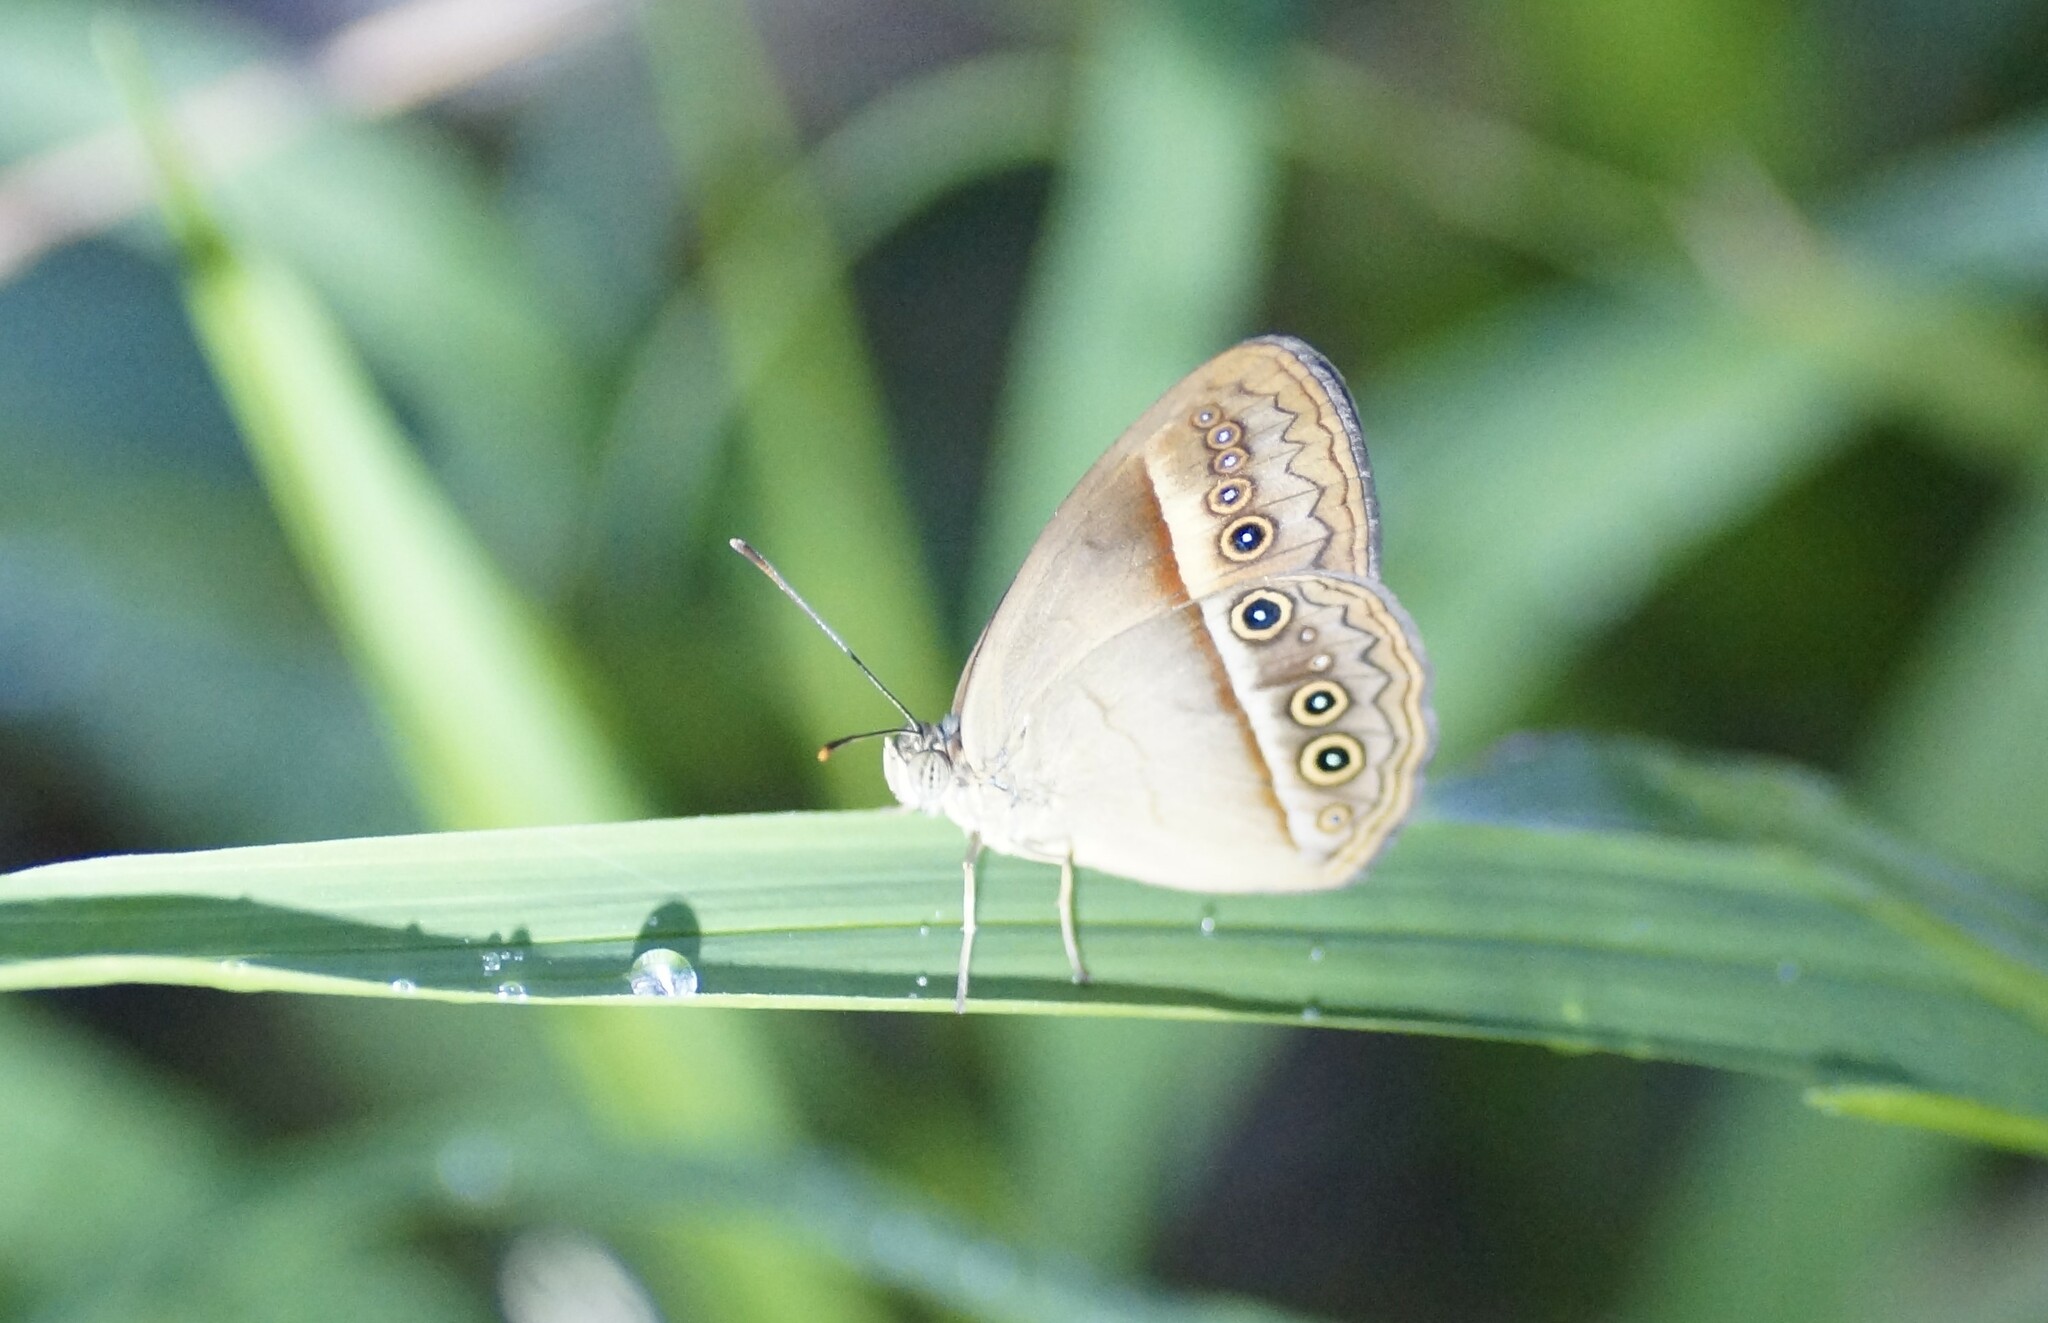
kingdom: Animalia
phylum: Arthropoda
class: Insecta
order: Lepidoptera
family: Nymphalidae
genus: Mycalesis
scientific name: Mycalesis terminus
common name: Orange bushbrown
